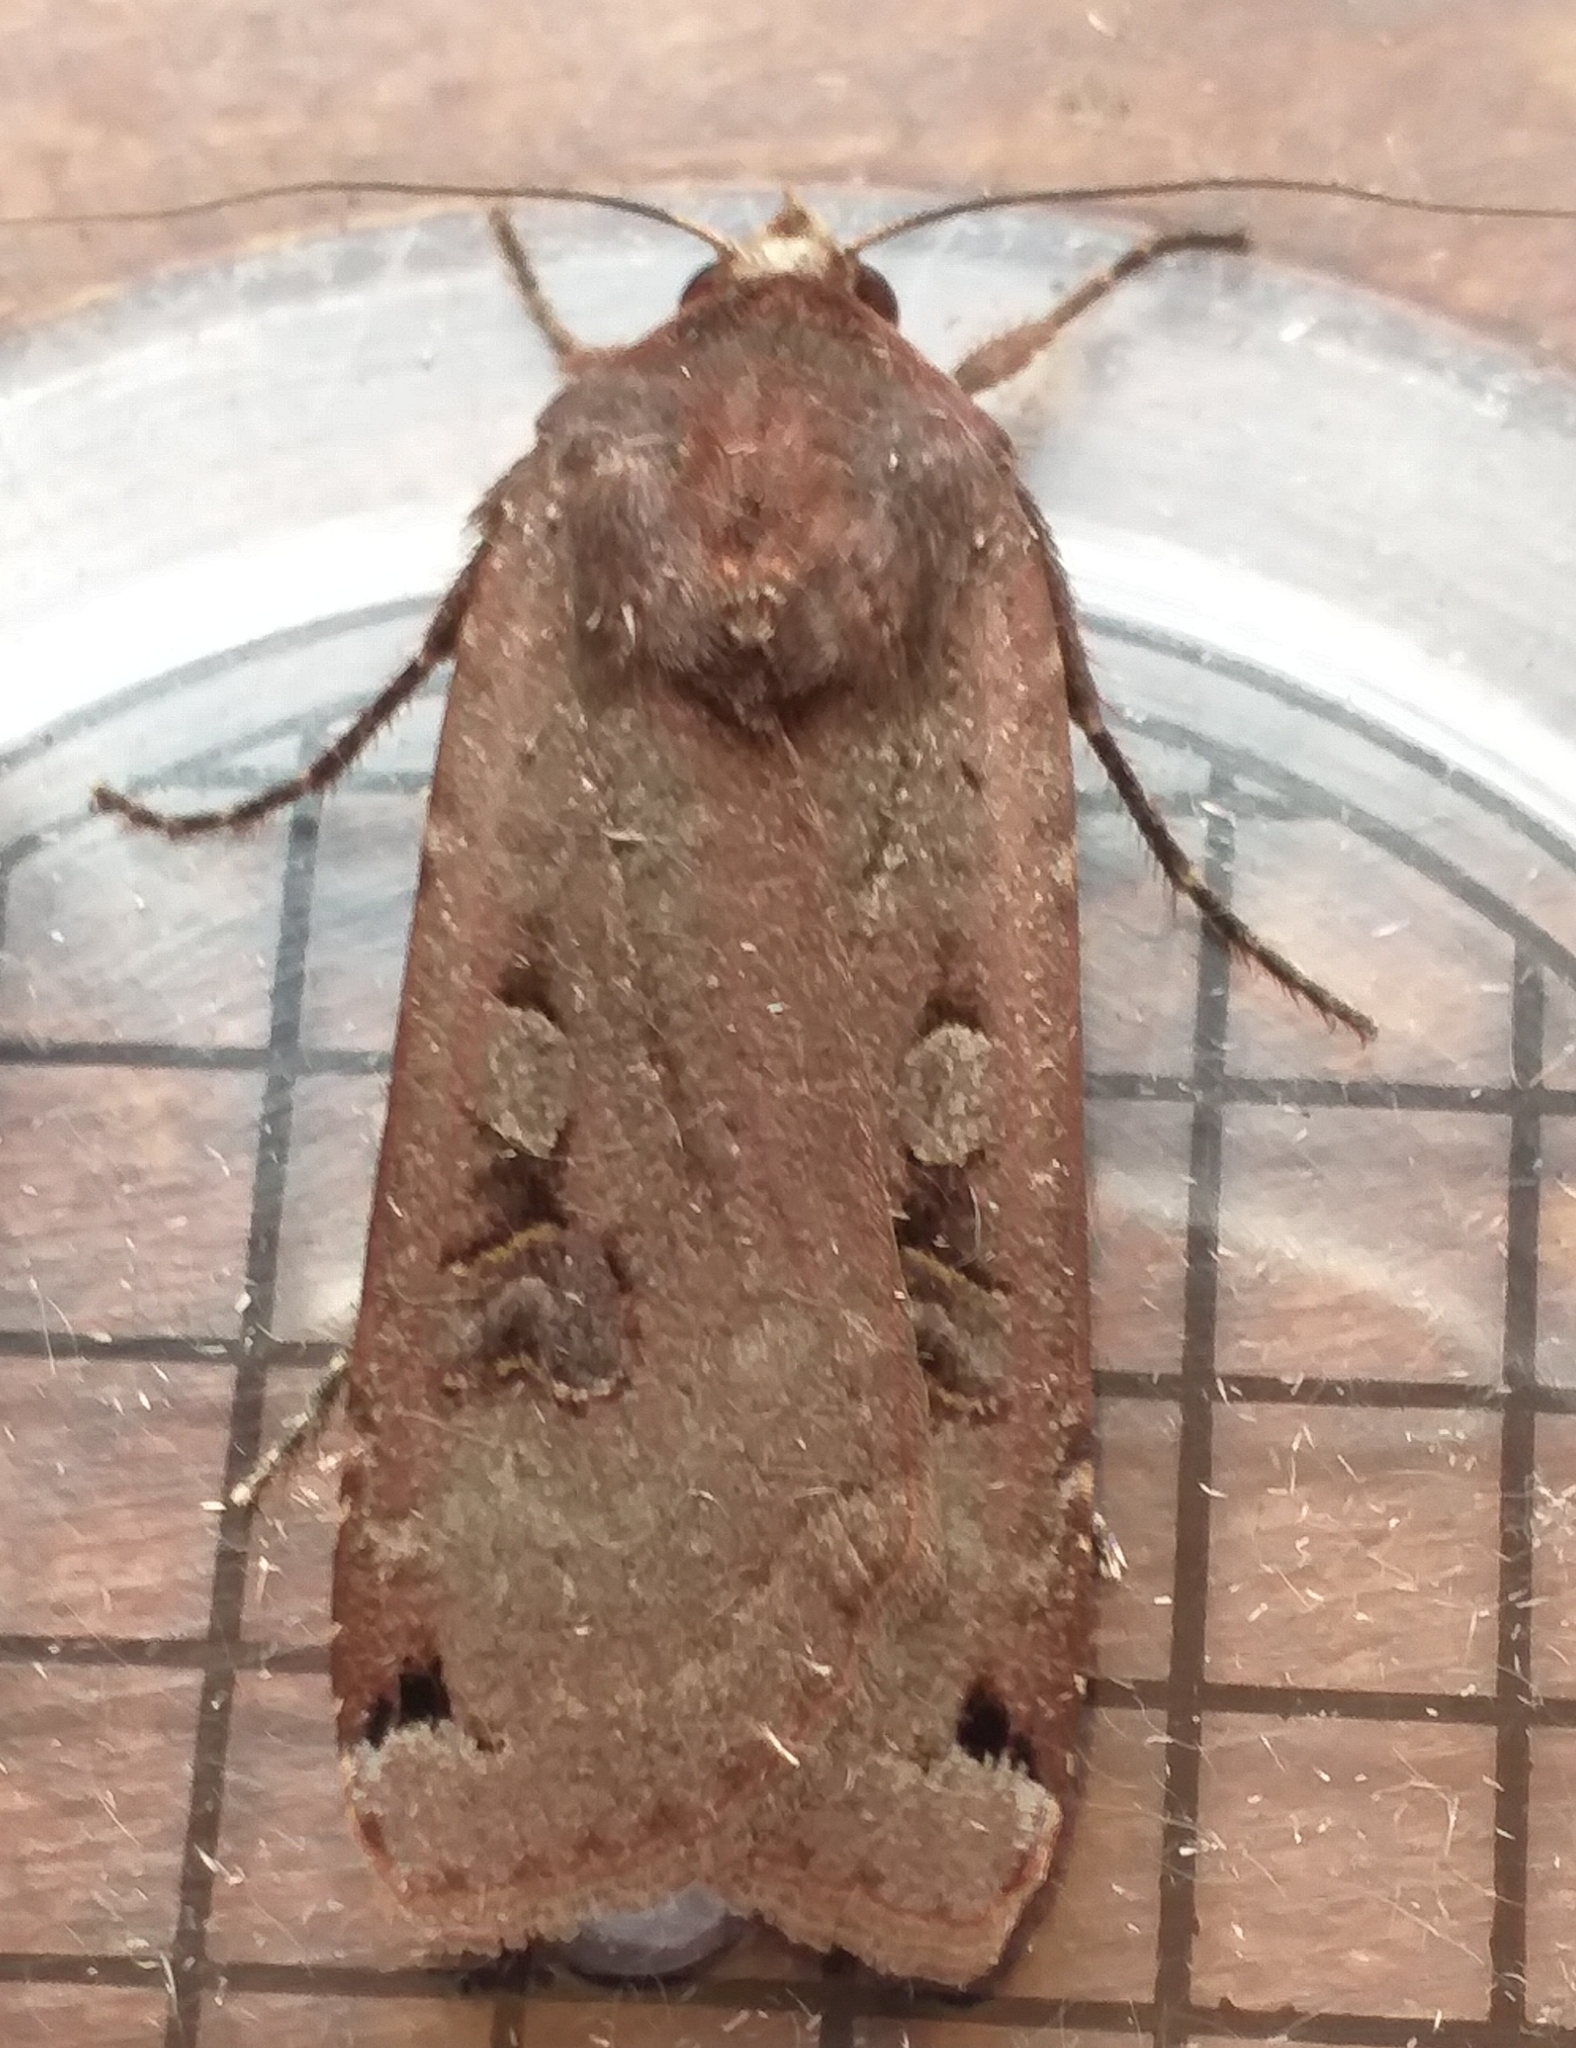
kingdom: Animalia
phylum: Arthropoda
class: Insecta
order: Lepidoptera
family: Noctuidae
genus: Noctua
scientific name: Noctua pronuba
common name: Large yellow underwing
